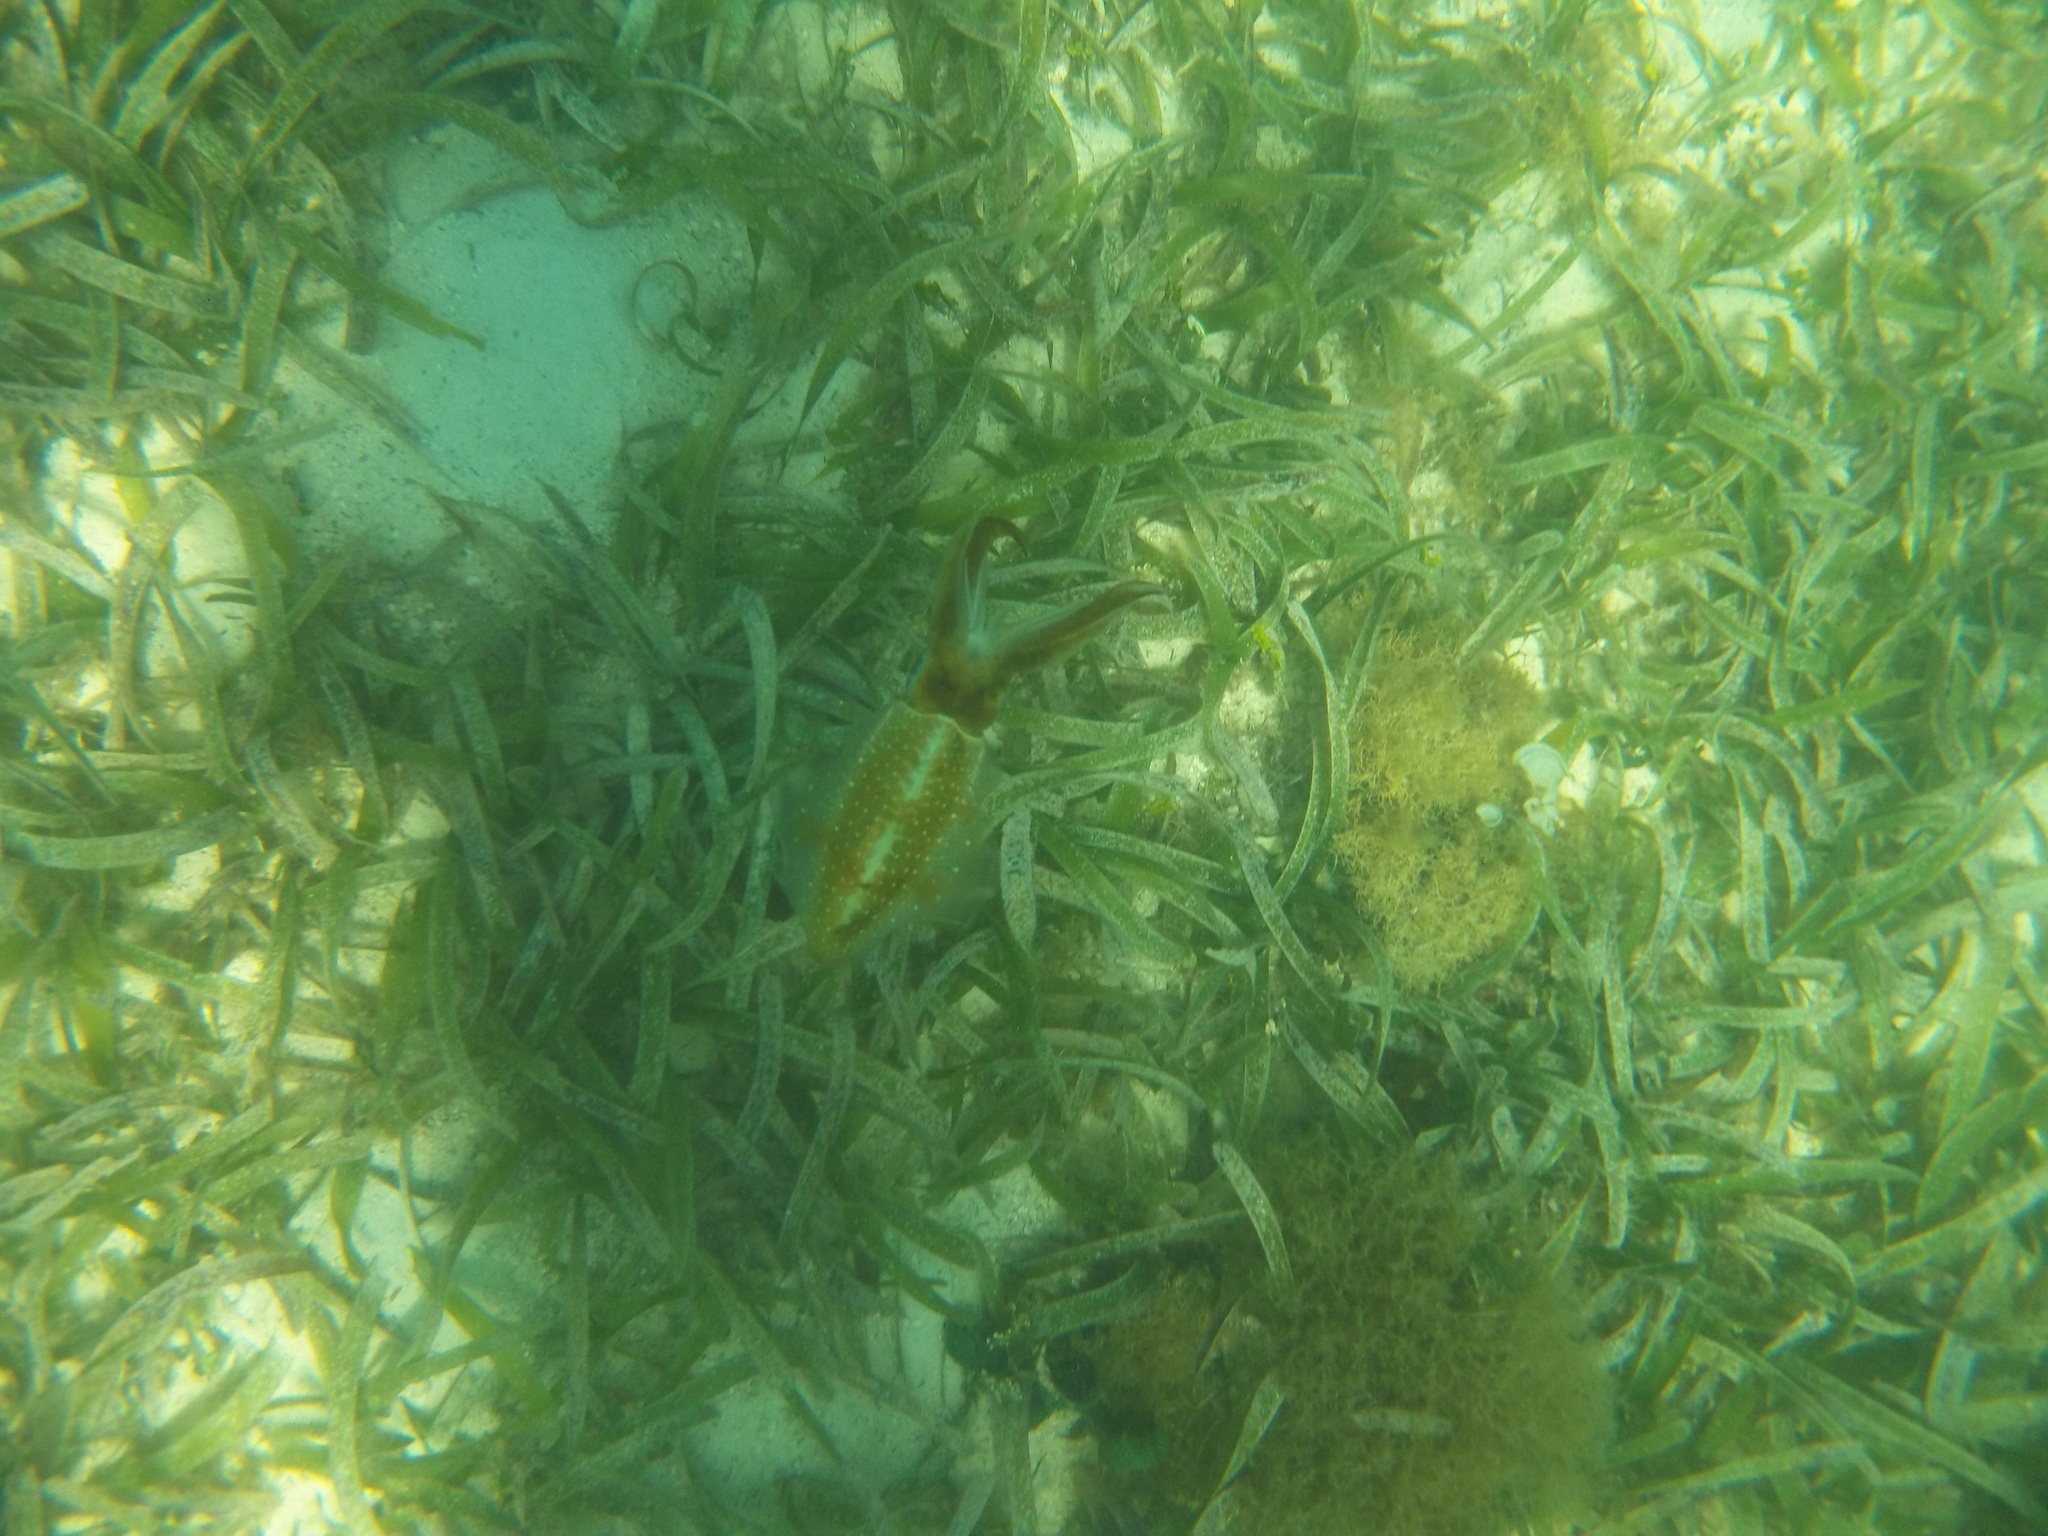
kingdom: Animalia
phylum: Mollusca
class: Cephalopoda
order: Myopsida
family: Loliginidae
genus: Sepioteuthis
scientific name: Sepioteuthis sepioidea
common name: Caribbean reef squid
